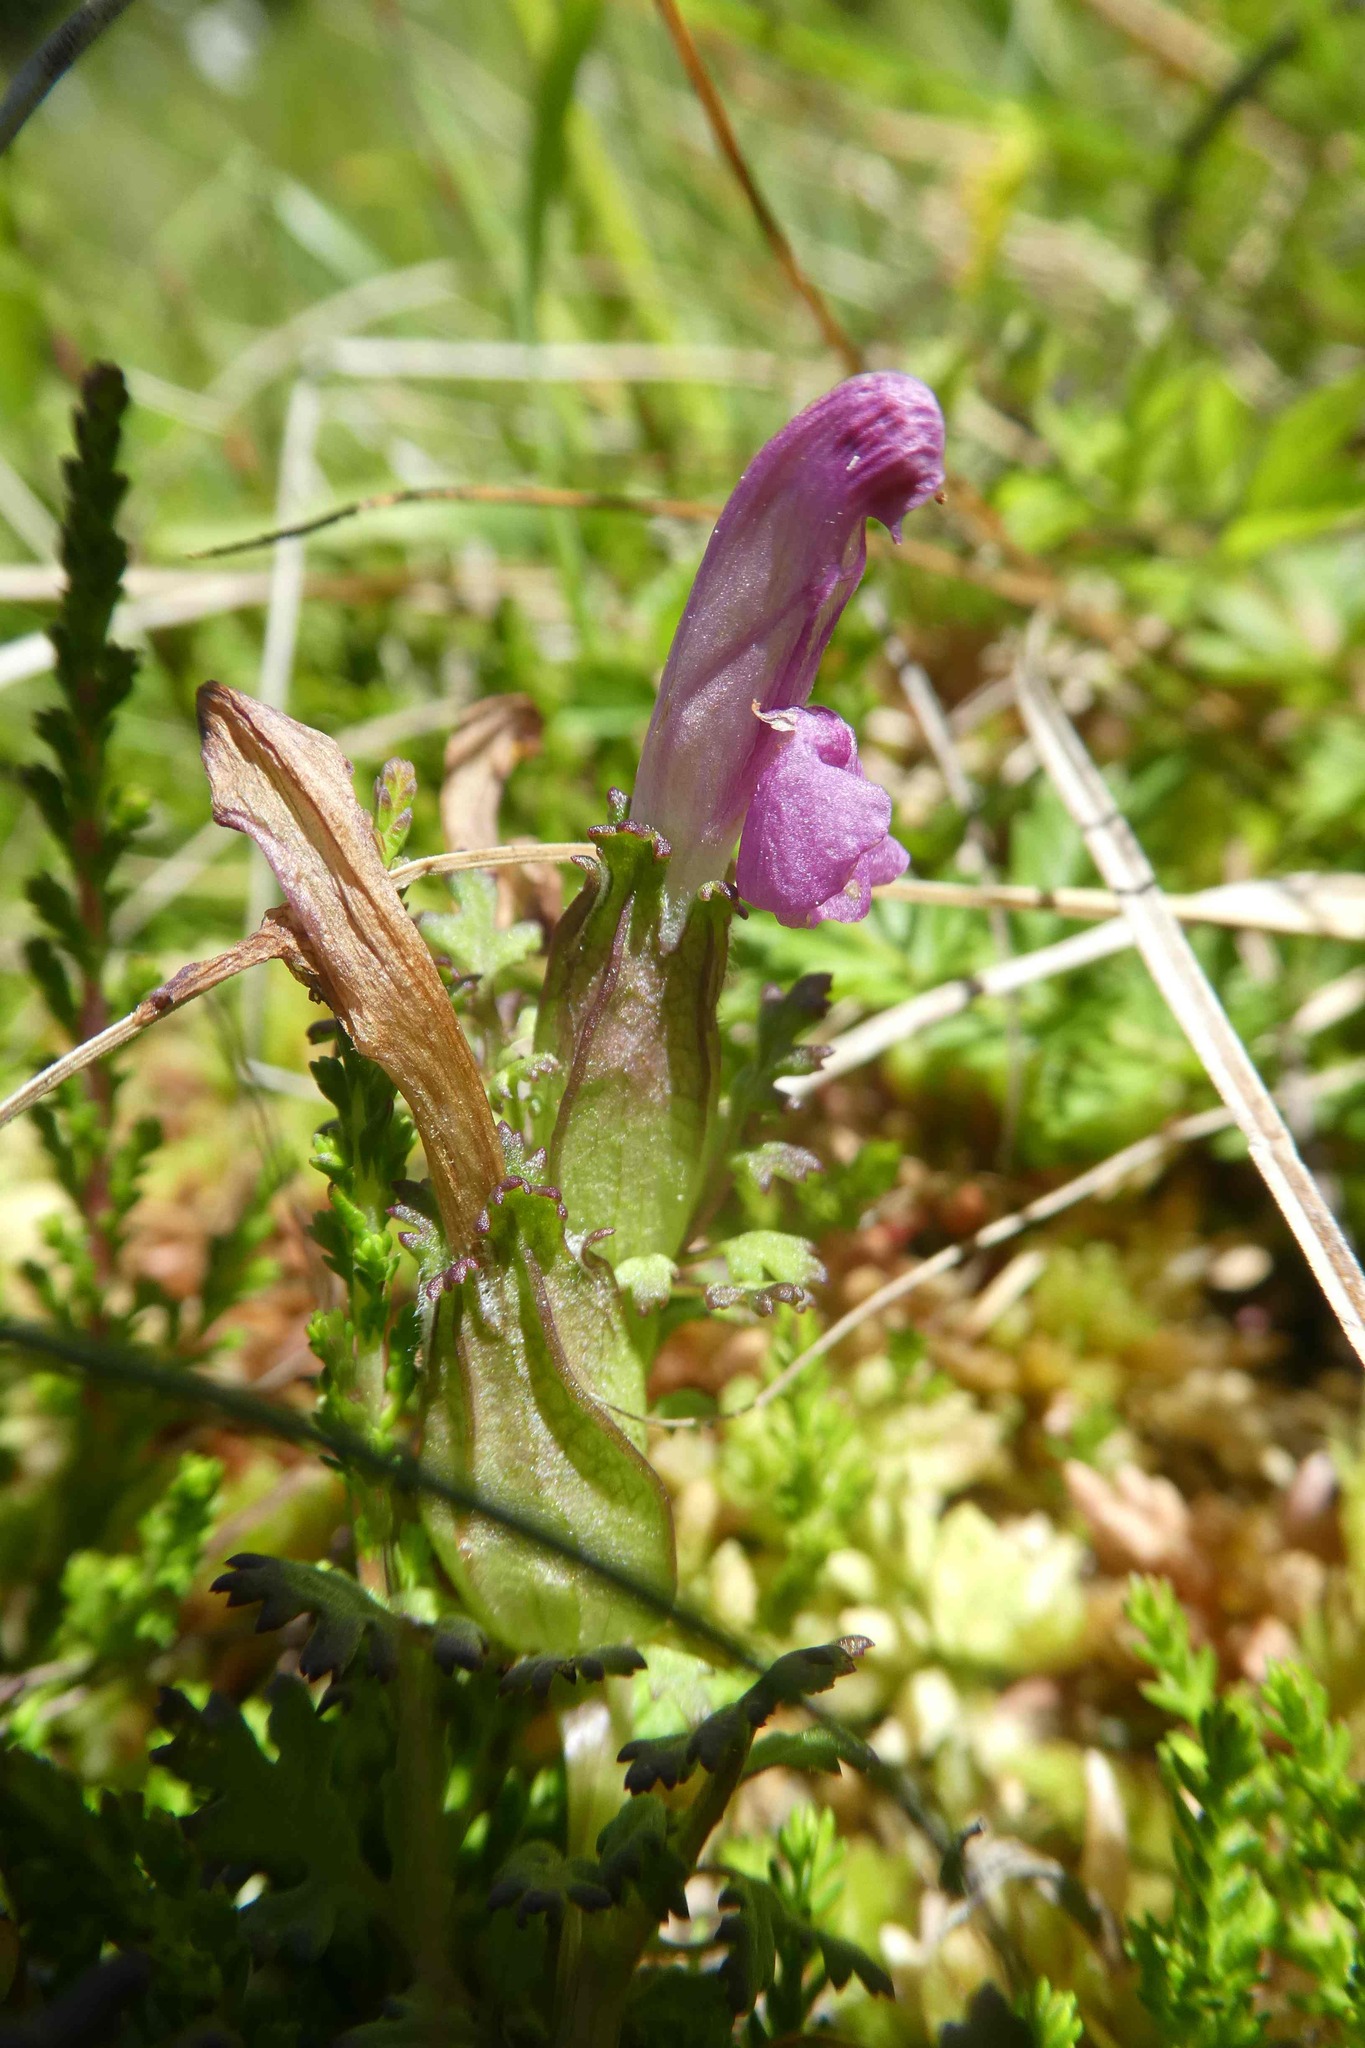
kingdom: Plantae
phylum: Tracheophyta
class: Magnoliopsida
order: Lamiales
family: Orobanchaceae
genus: Pedicularis
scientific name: Pedicularis sylvatica
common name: Lousewort
